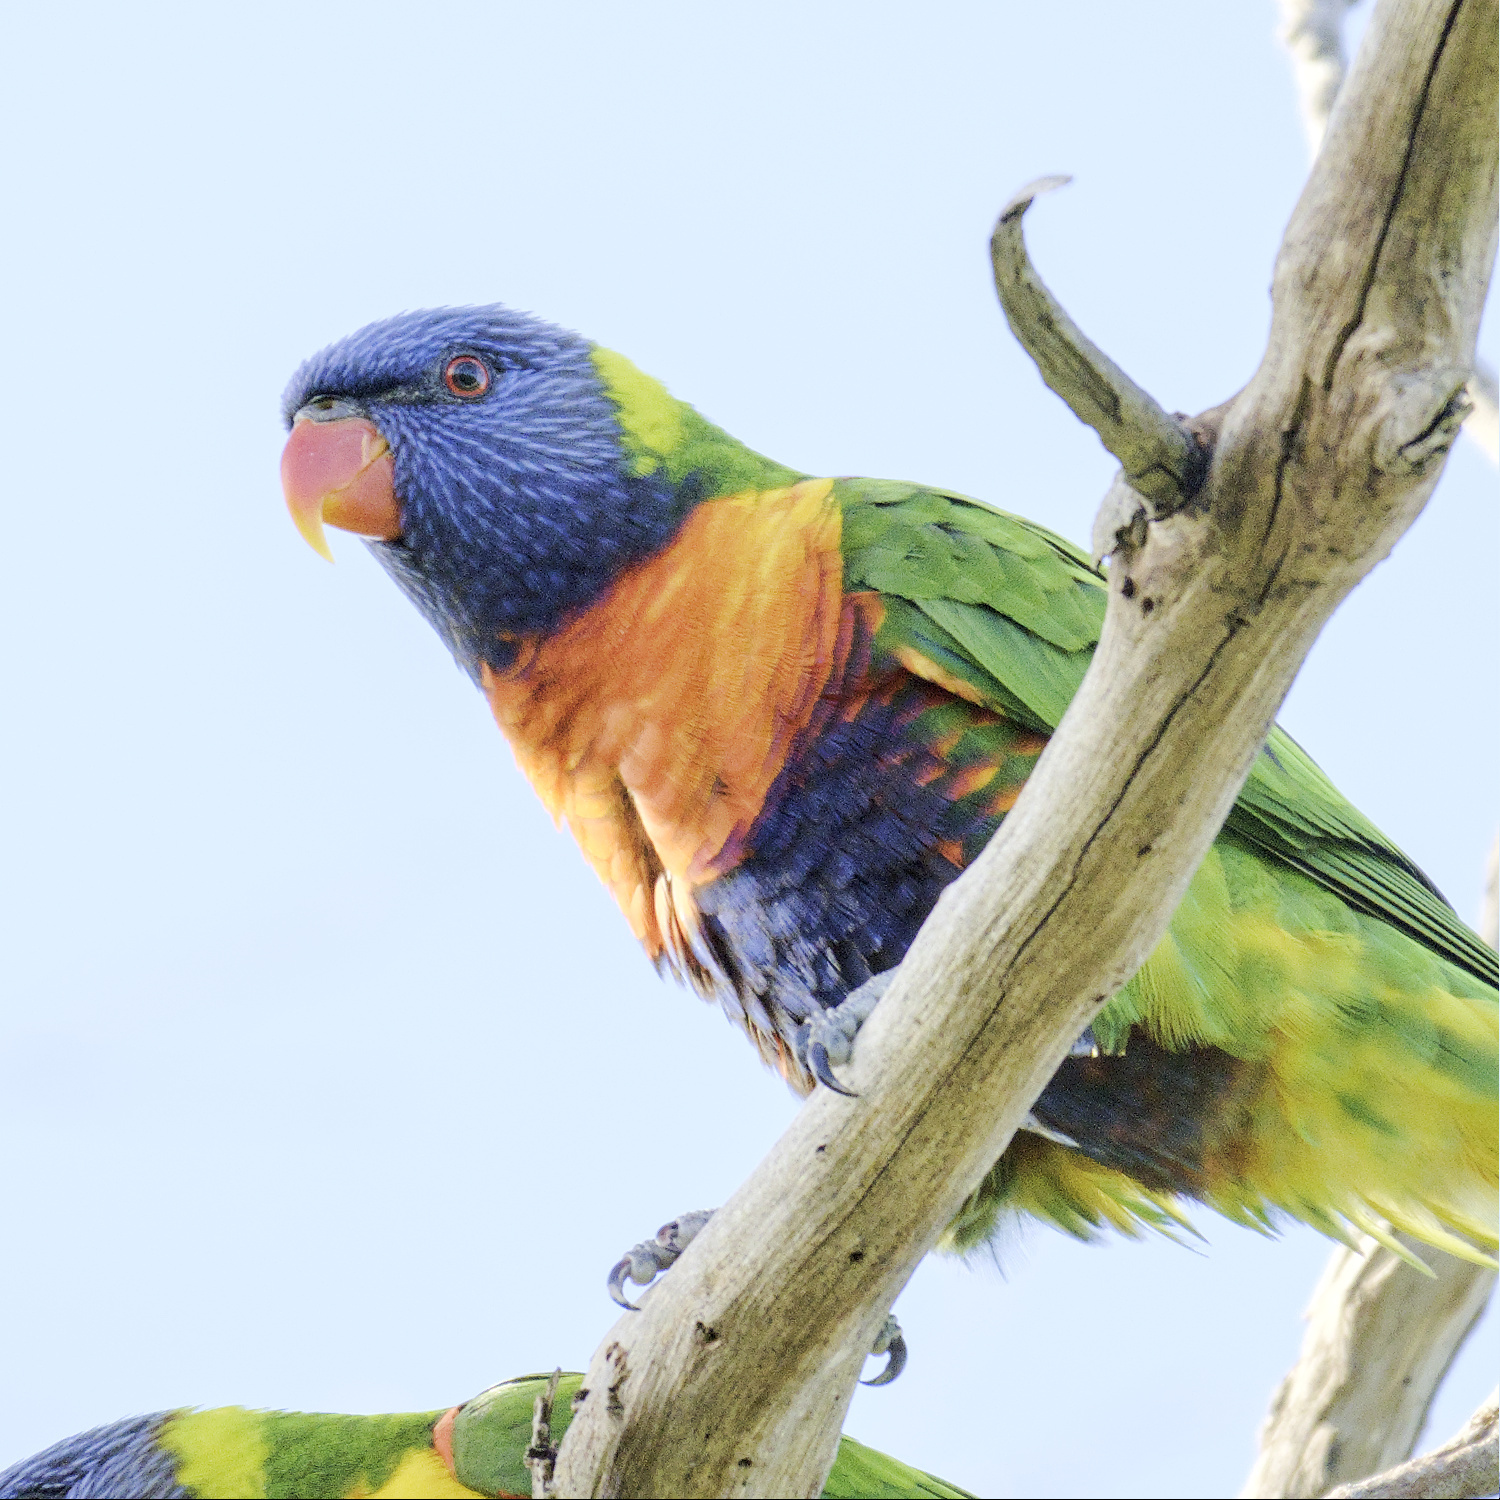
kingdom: Animalia
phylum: Chordata
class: Aves
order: Psittaciformes
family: Psittacidae
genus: Trichoglossus
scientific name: Trichoglossus haematodus
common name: Coconut lorikeet
